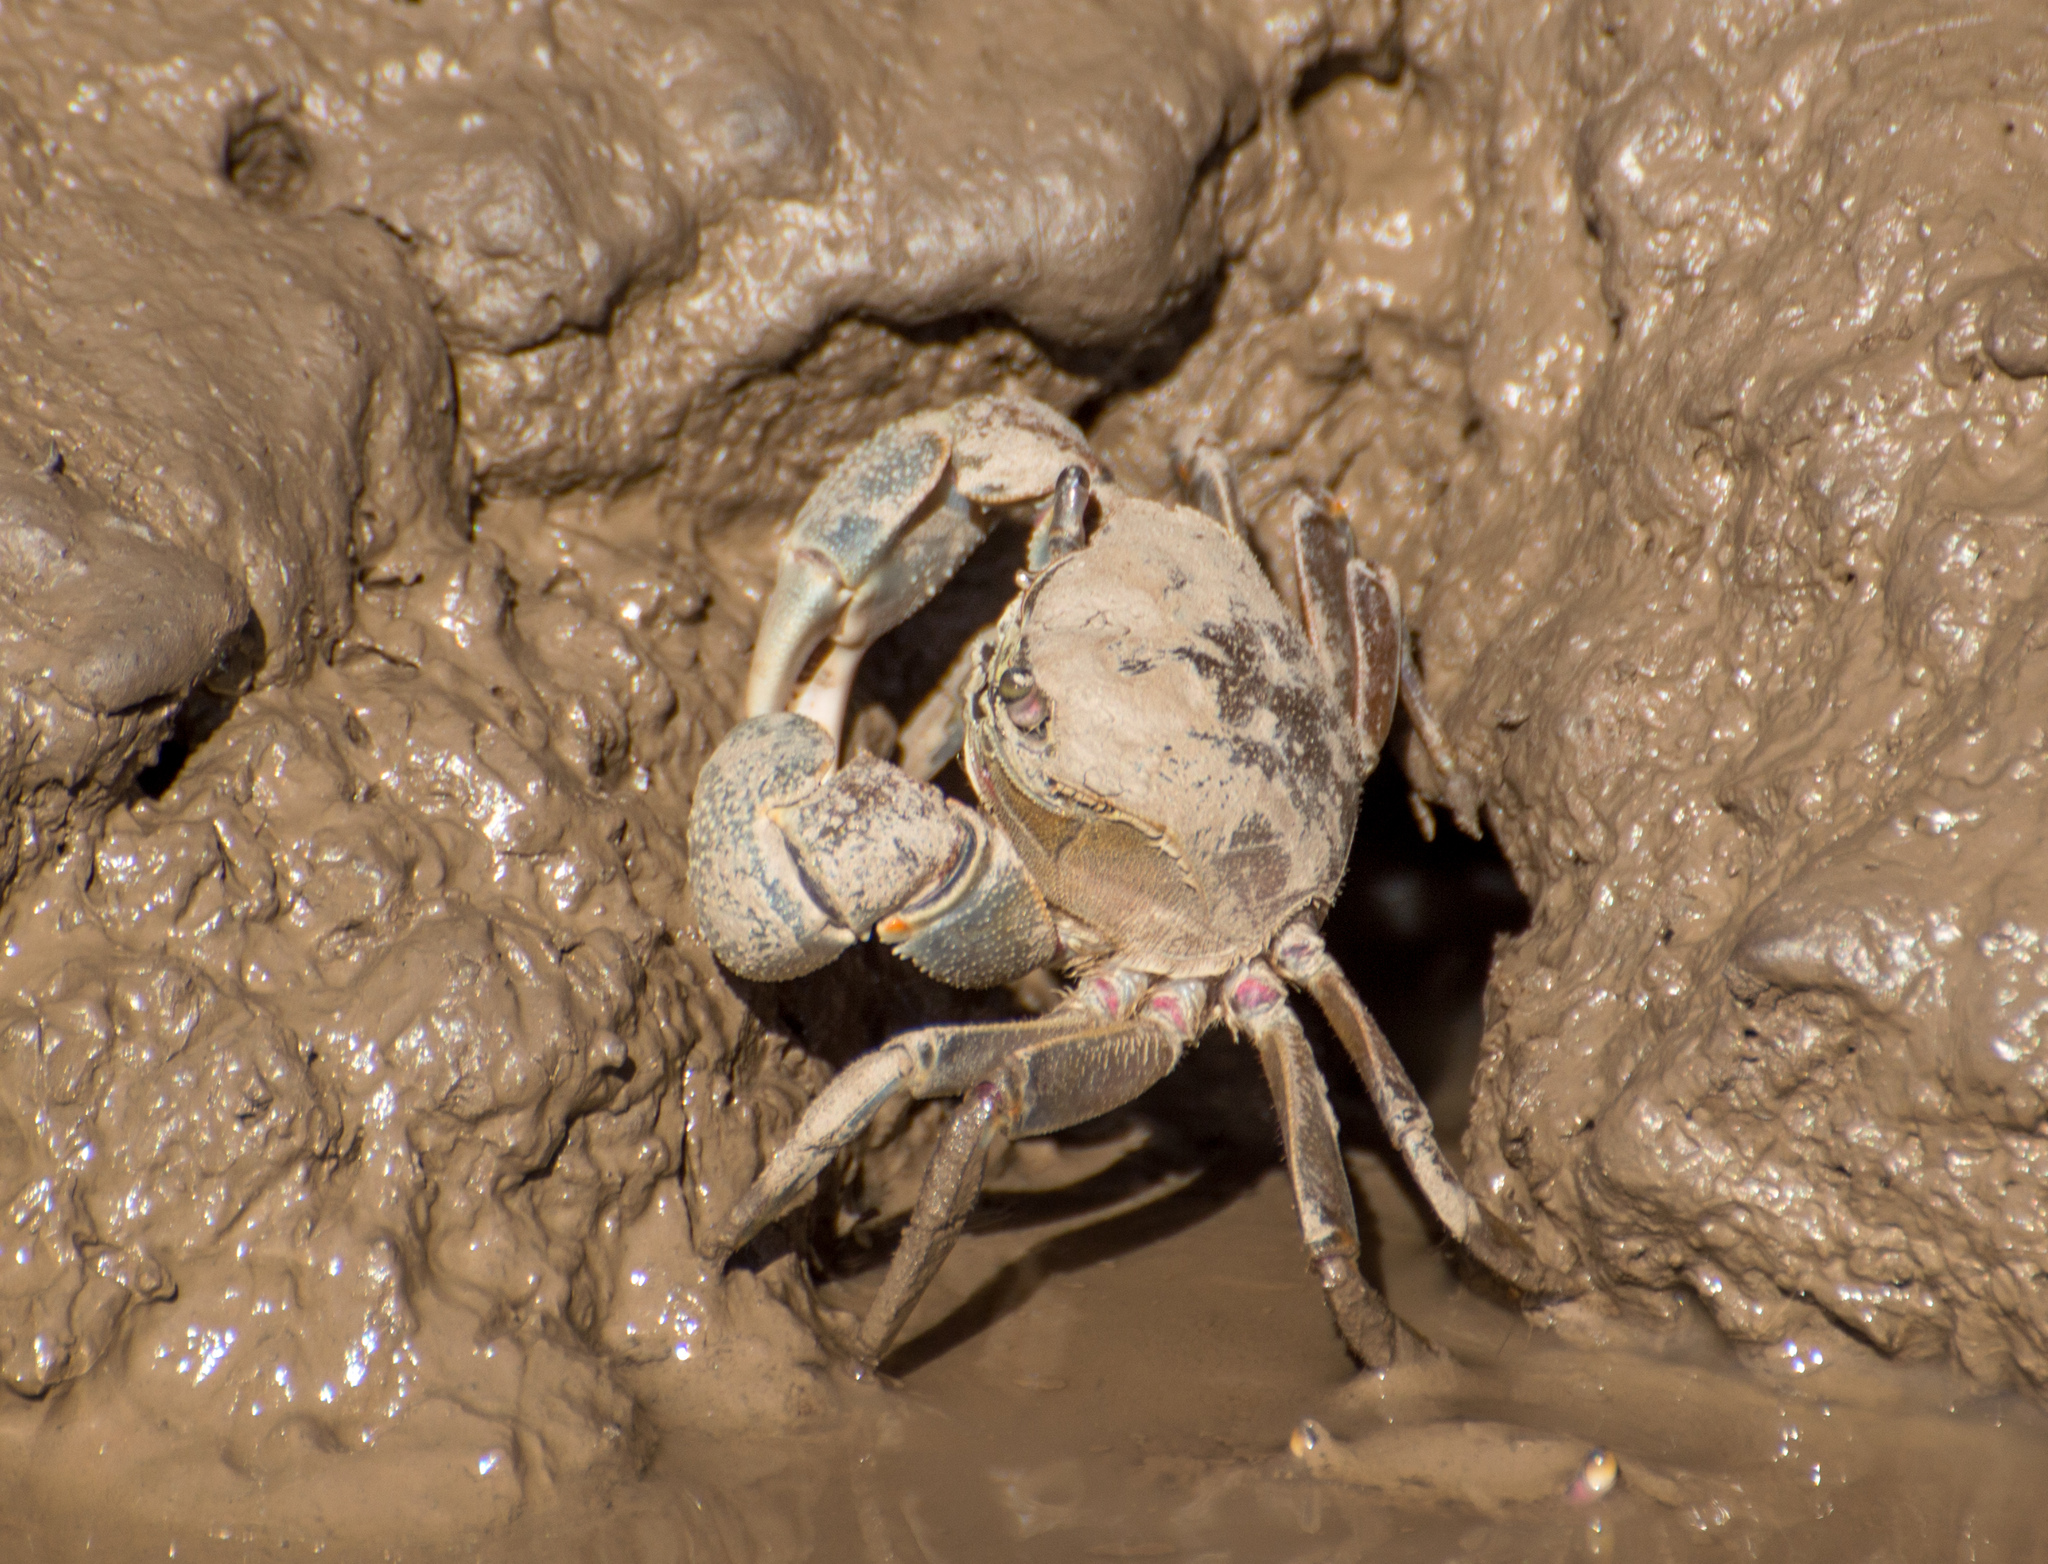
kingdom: Animalia
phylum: Arthropoda
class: Malacostraca
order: Decapoda
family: Varunidae
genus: Neohelice
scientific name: Neohelice granulata
